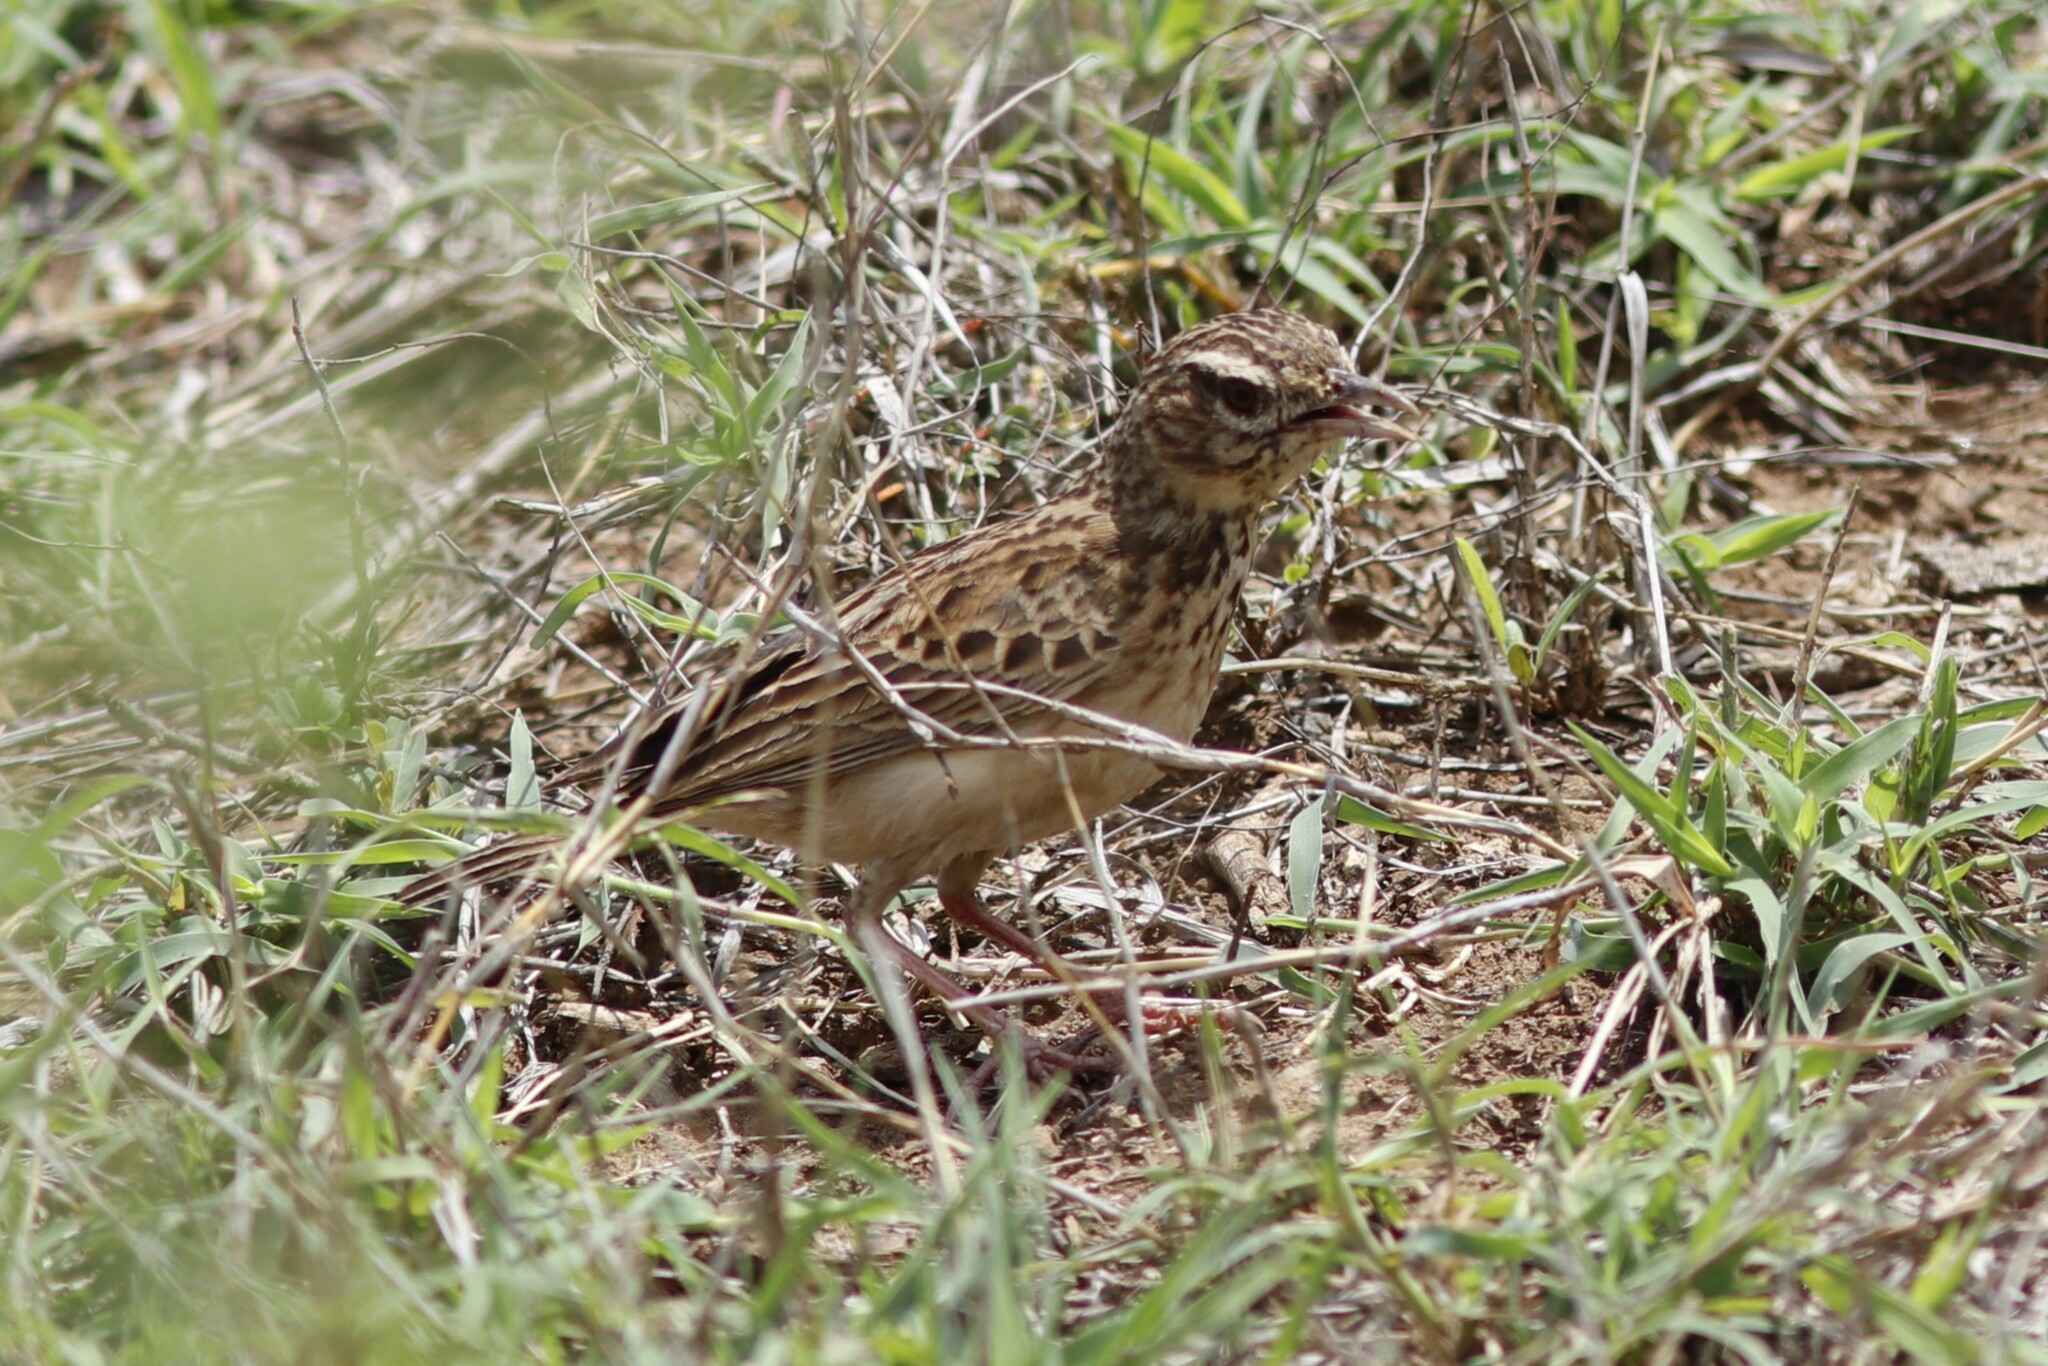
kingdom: Animalia
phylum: Chordata
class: Aves
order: Passeriformes
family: Alaudidae
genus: Calendulauda
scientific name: Calendulauda sabota
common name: Sabota lark
